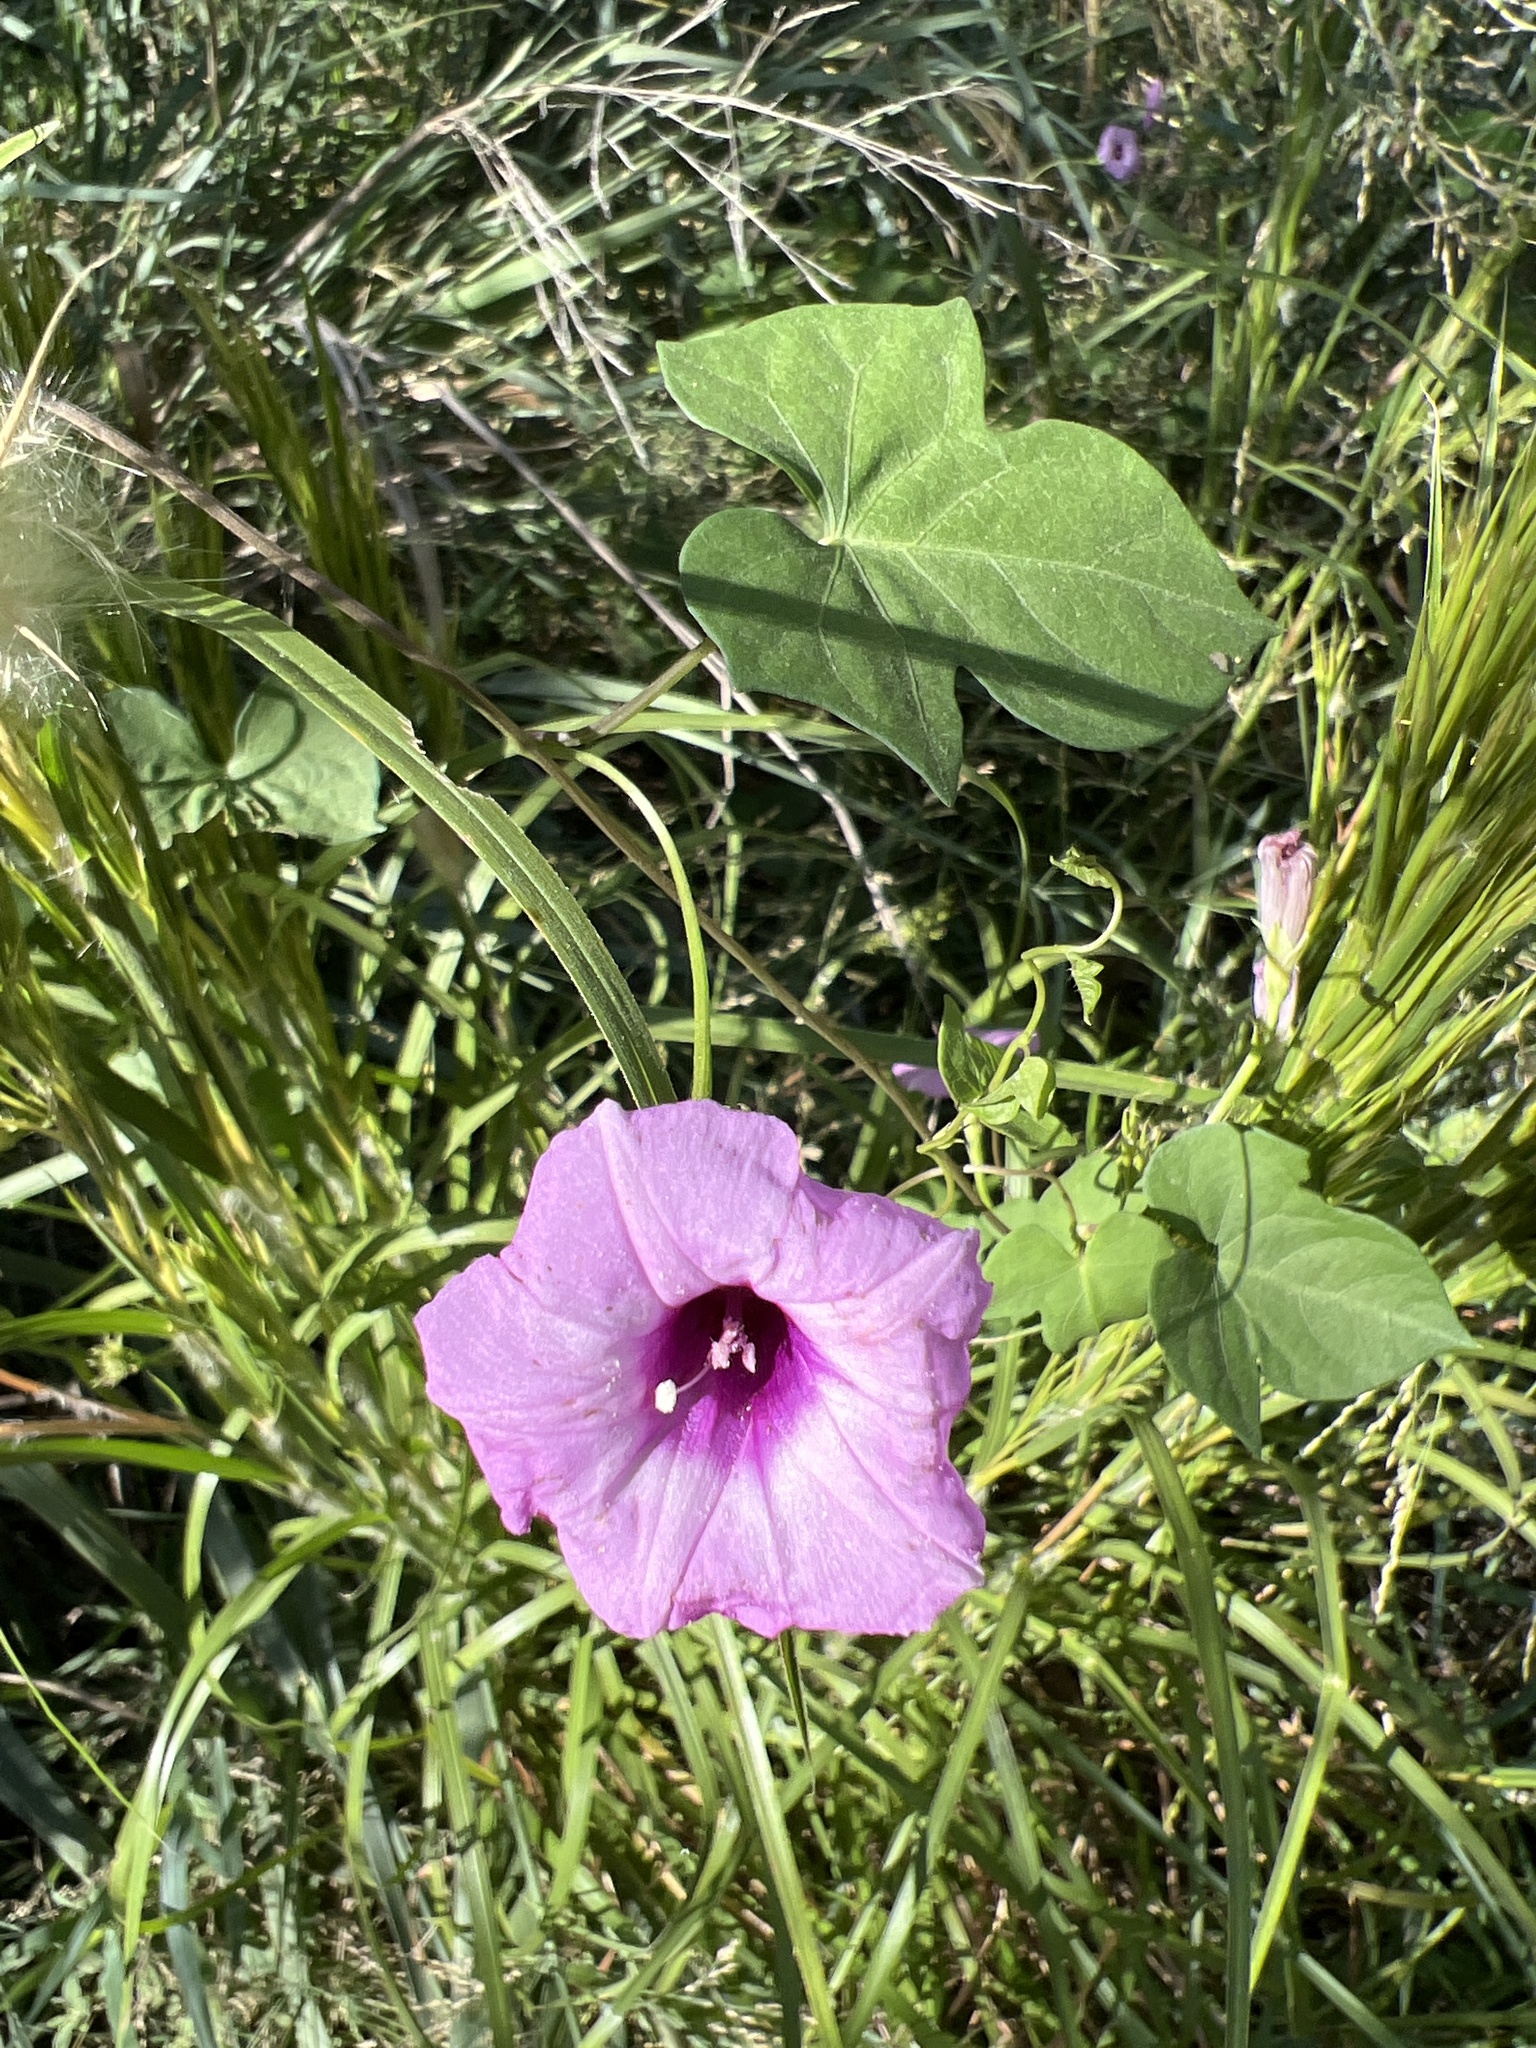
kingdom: Plantae
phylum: Tracheophyta
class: Magnoliopsida
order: Solanales
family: Convolvulaceae
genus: Ipomoea
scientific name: Ipomoea cordatotriloba
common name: Cotton morning glory
